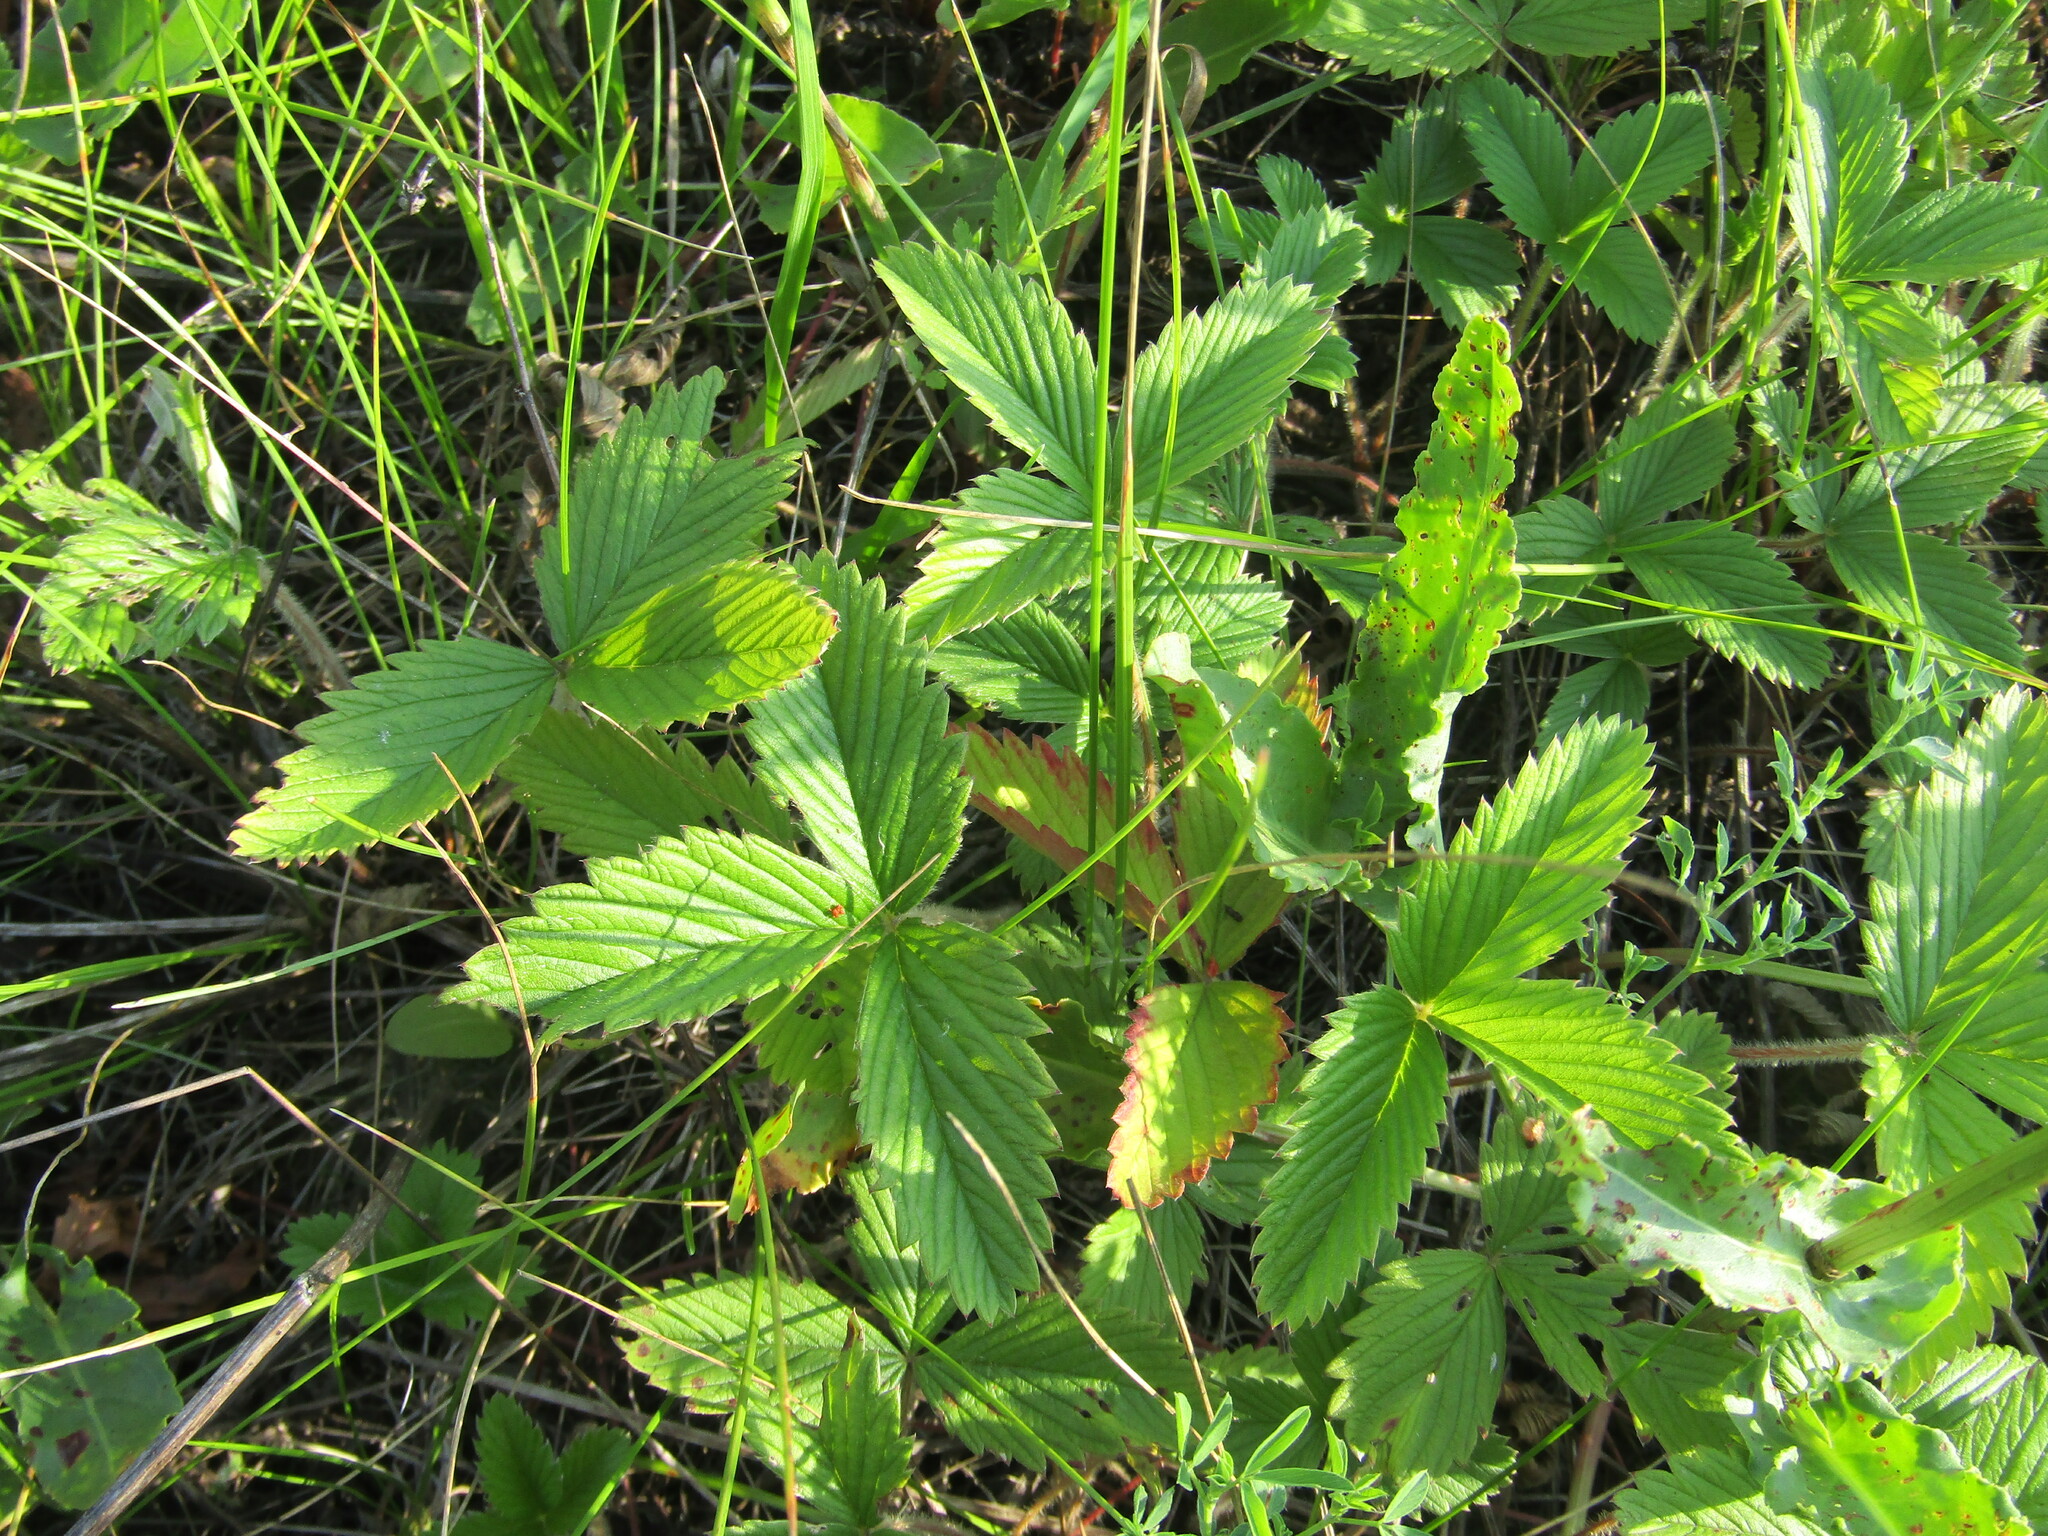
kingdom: Plantae
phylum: Tracheophyta
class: Magnoliopsida
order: Rosales
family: Rosaceae
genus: Fragaria
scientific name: Fragaria viridis
